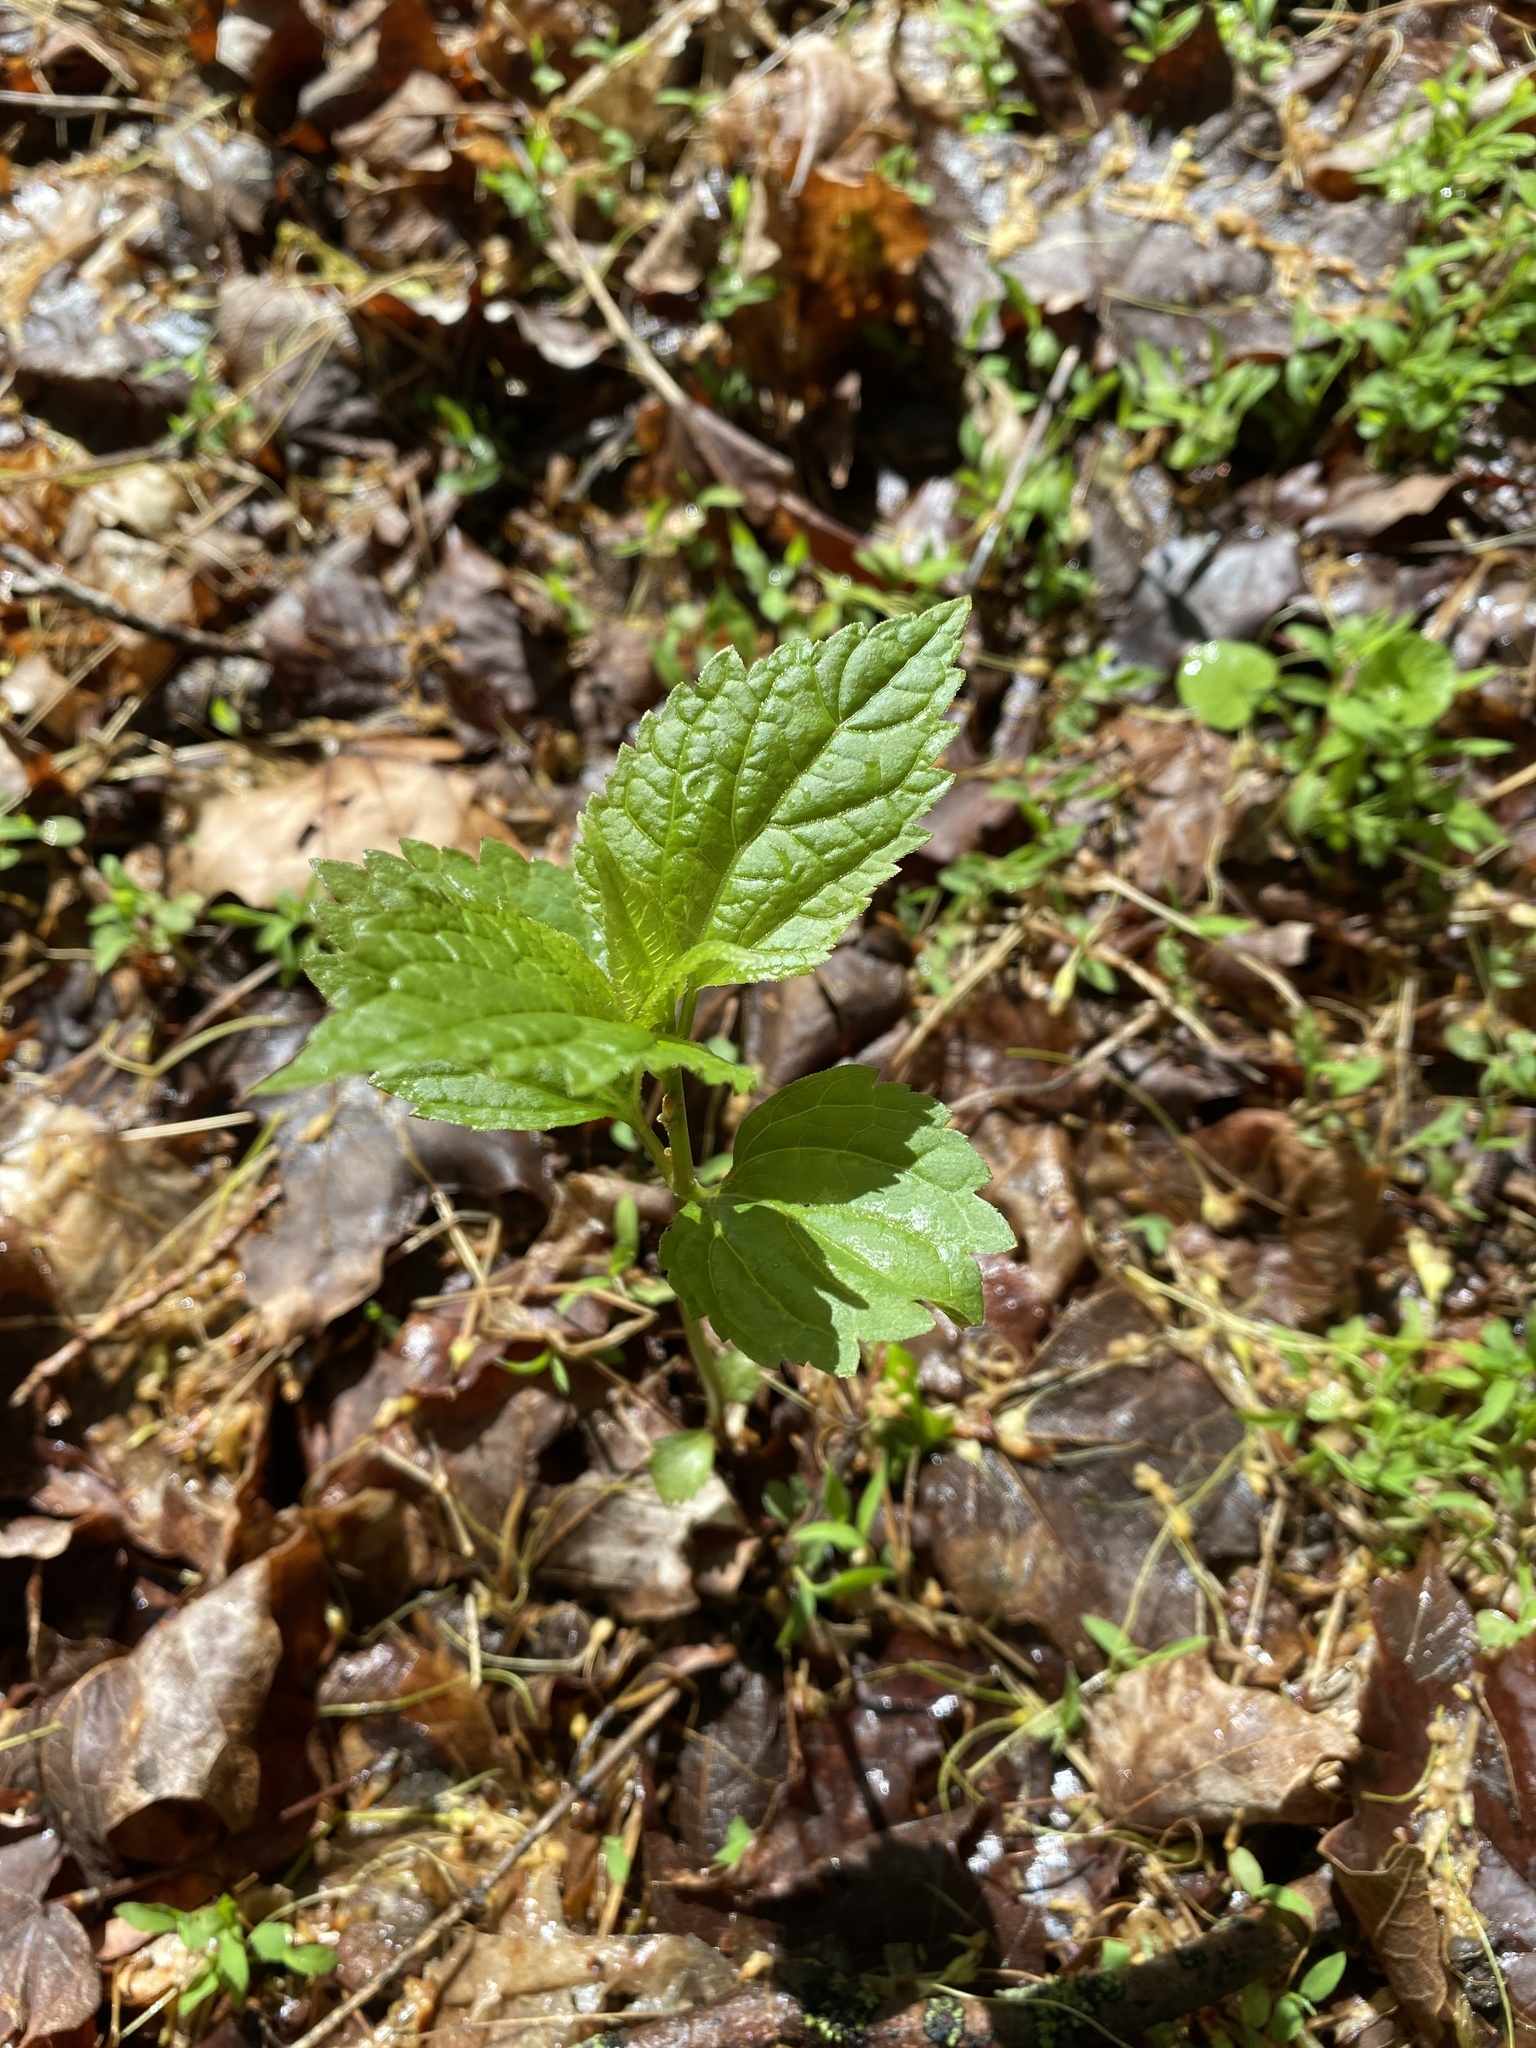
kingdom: Plantae
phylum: Tracheophyta
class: Magnoliopsida
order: Asterales
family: Asteraceae
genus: Ageratina
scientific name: Ageratina altissima
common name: White snakeroot
